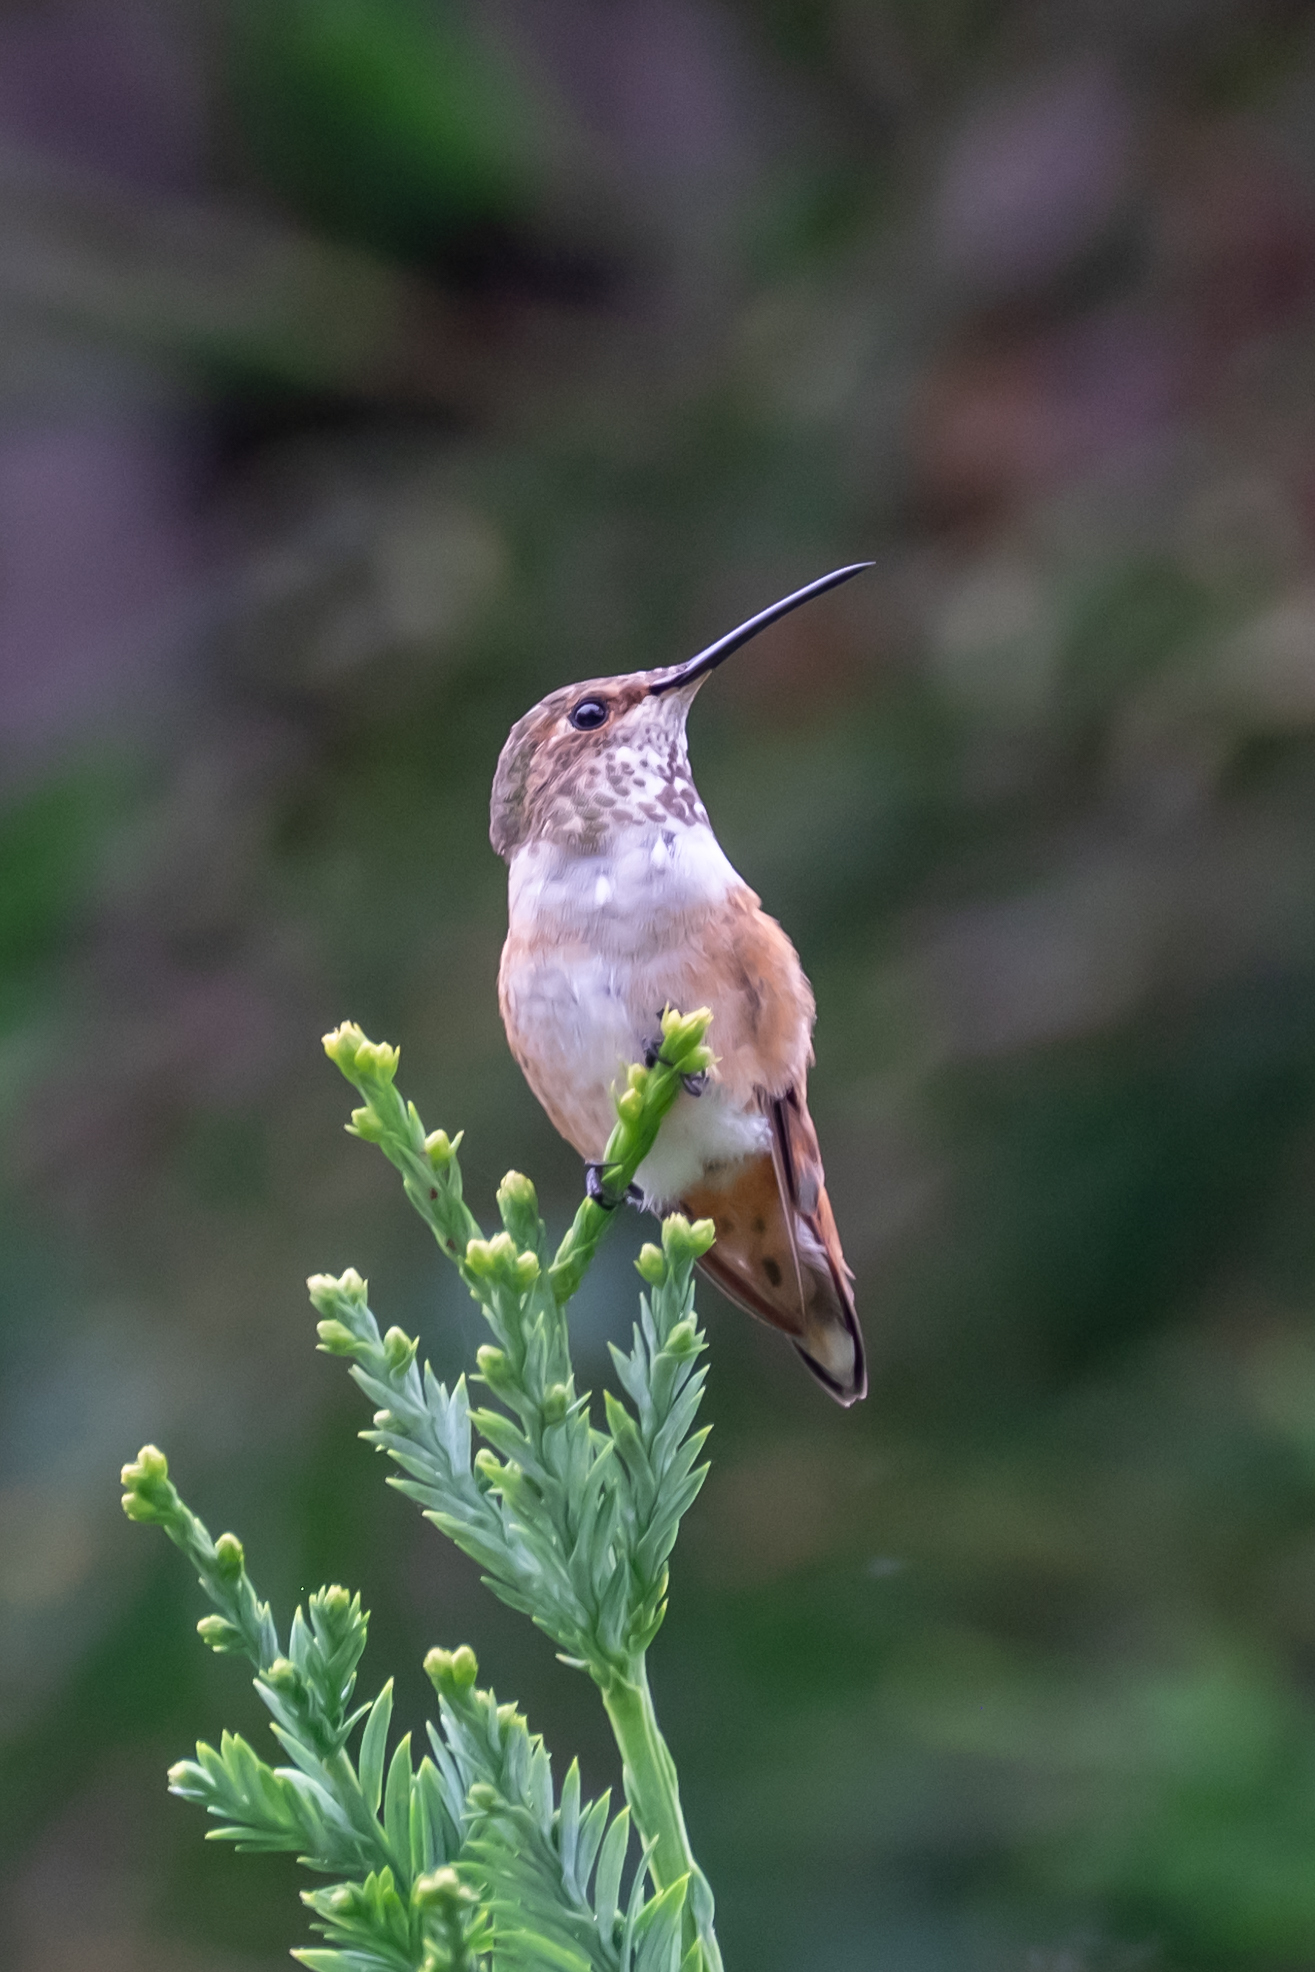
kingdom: Animalia
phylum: Chordata
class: Aves
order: Apodiformes
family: Trochilidae
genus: Selasphorus
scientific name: Selasphorus
